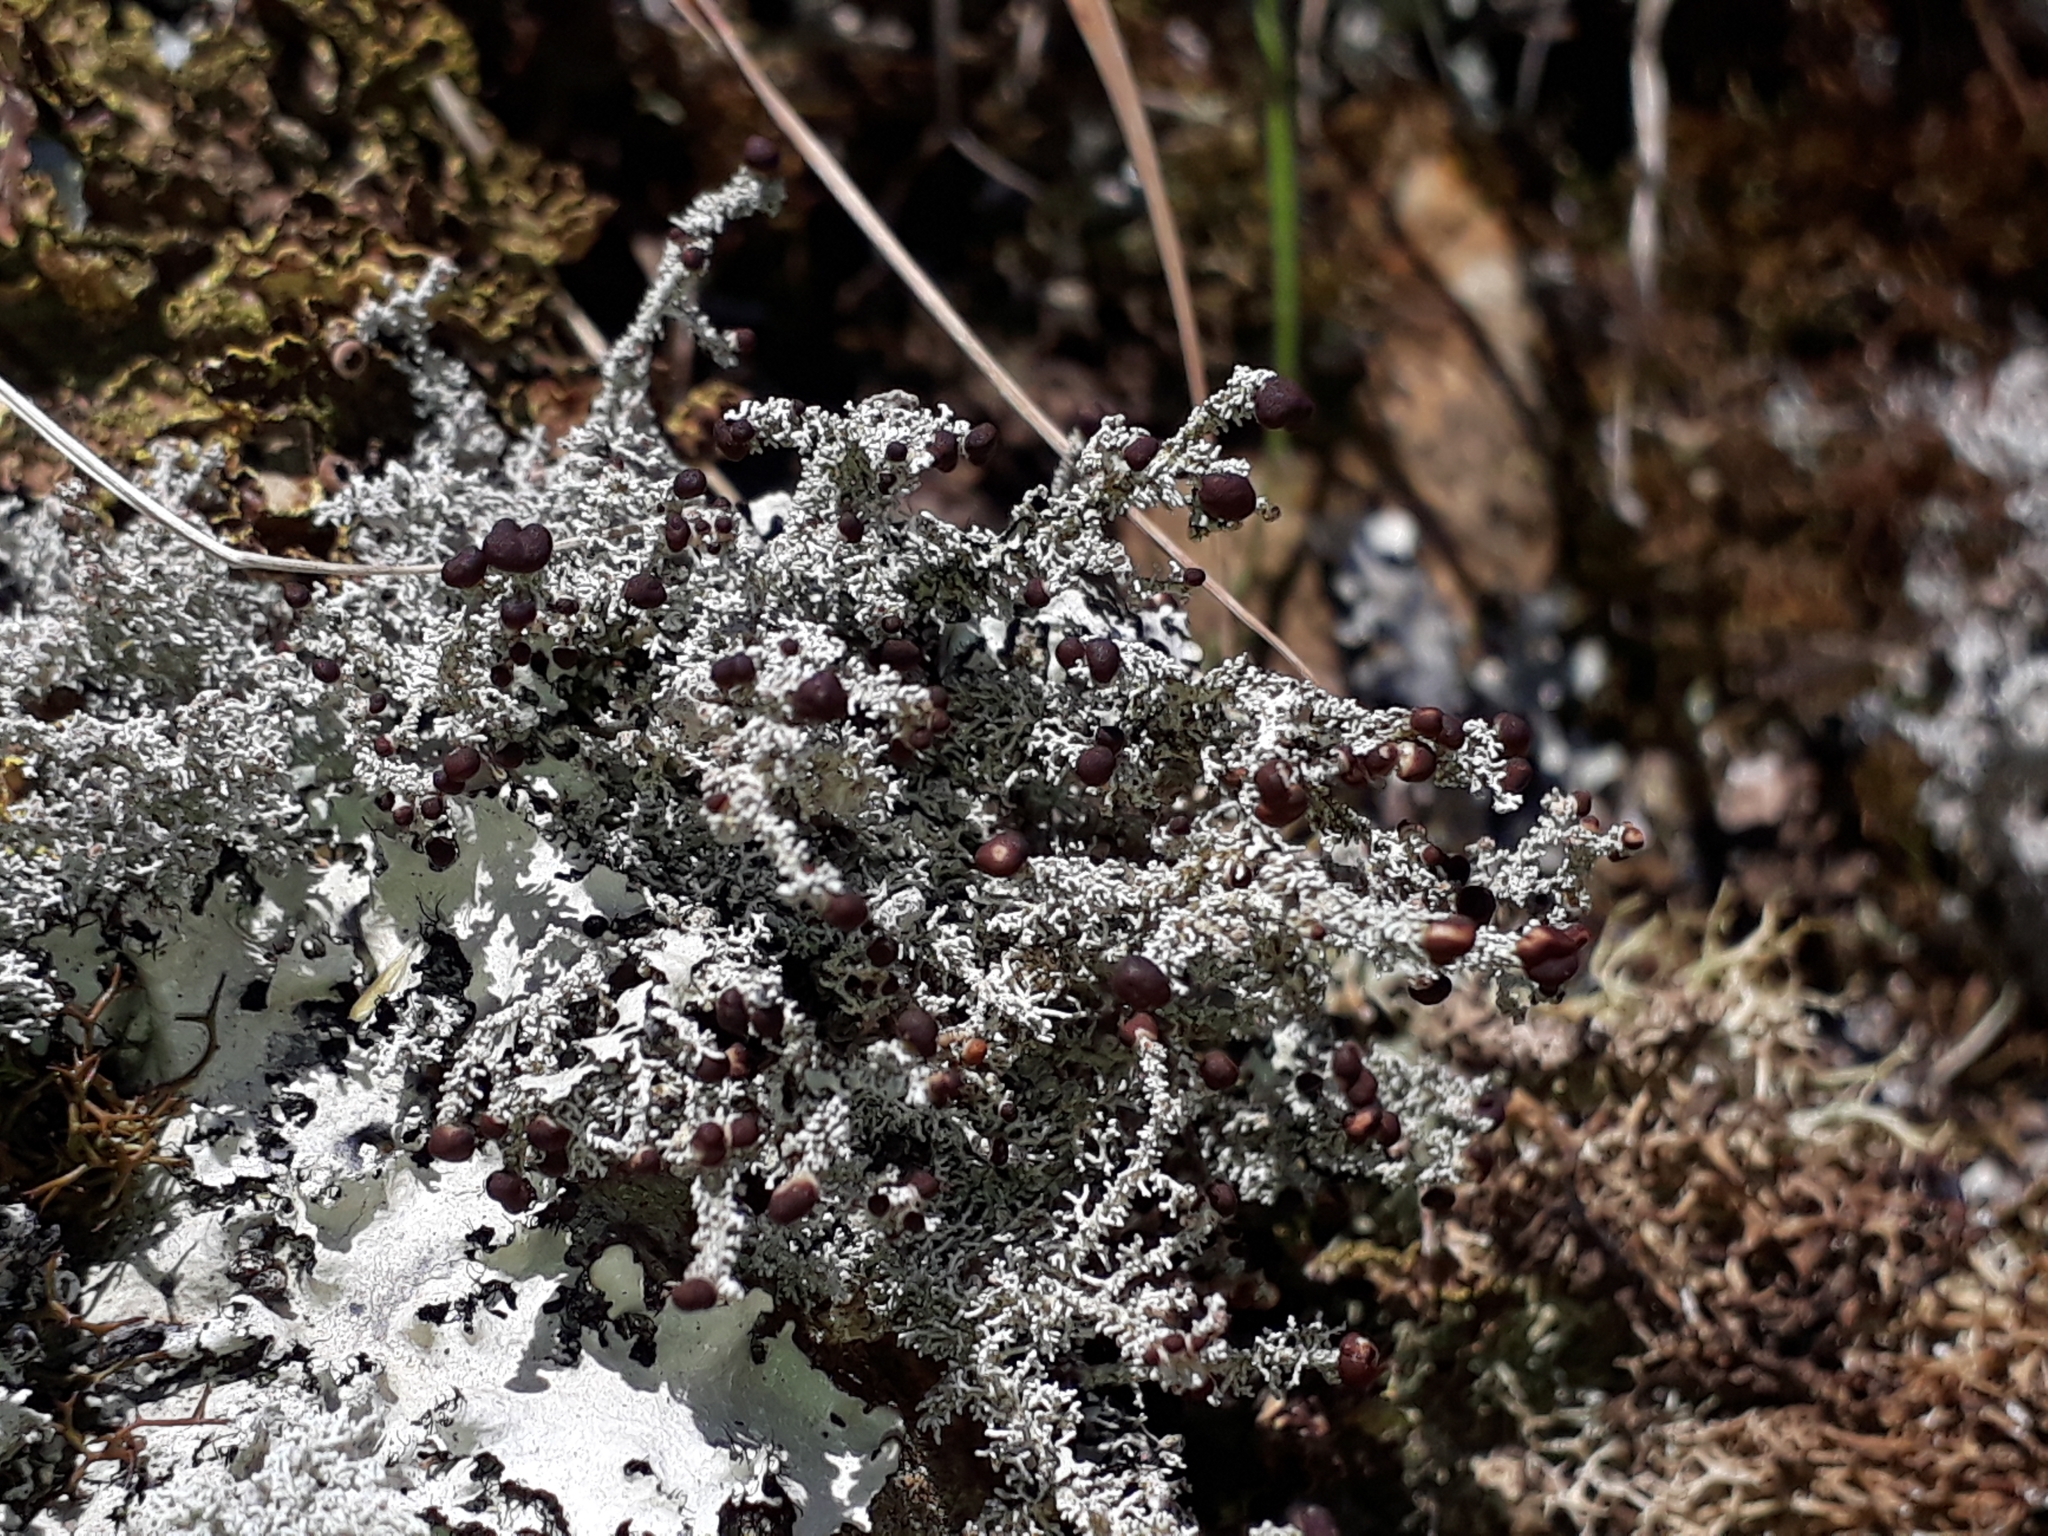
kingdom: Fungi
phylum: Ascomycota
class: Lecanoromycetes
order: Lecanorales
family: Stereocaulaceae
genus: Stereocaulon
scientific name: Stereocaulon ramulosum
